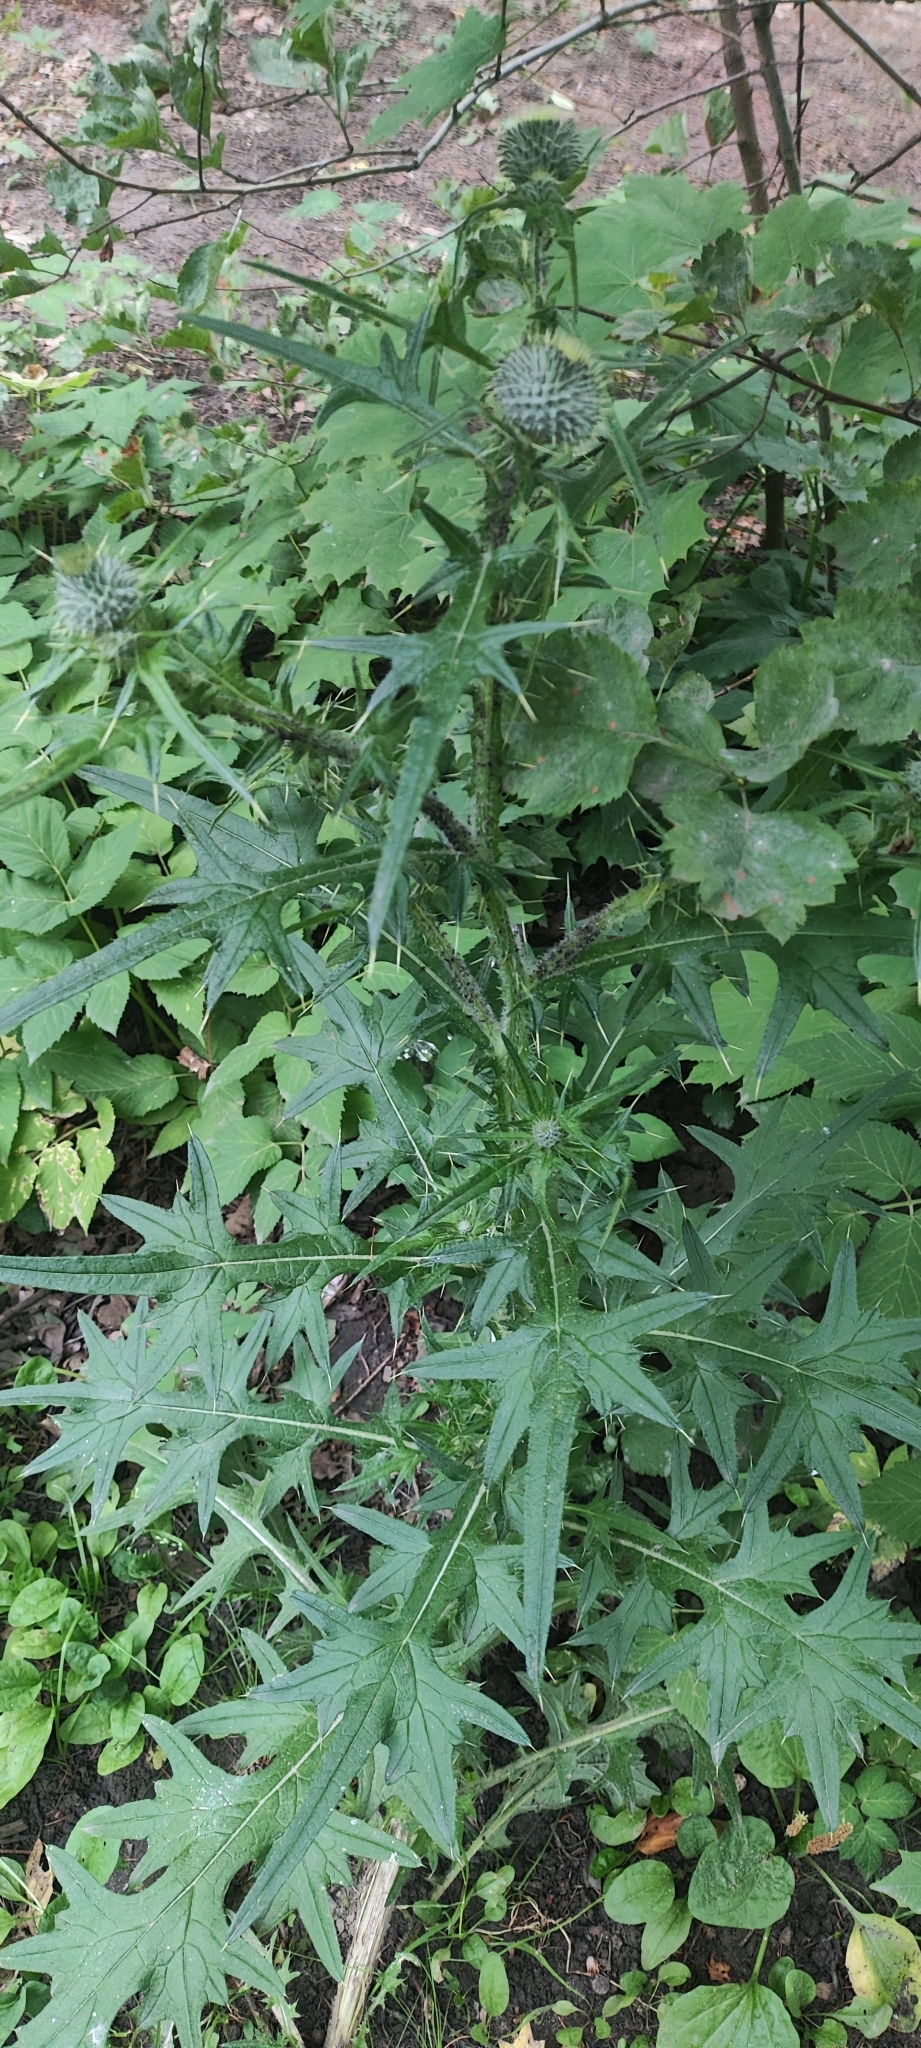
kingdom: Plantae
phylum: Tracheophyta
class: Magnoliopsida
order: Asterales
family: Asteraceae
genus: Cirsium
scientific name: Cirsium vulgare
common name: Bull thistle
